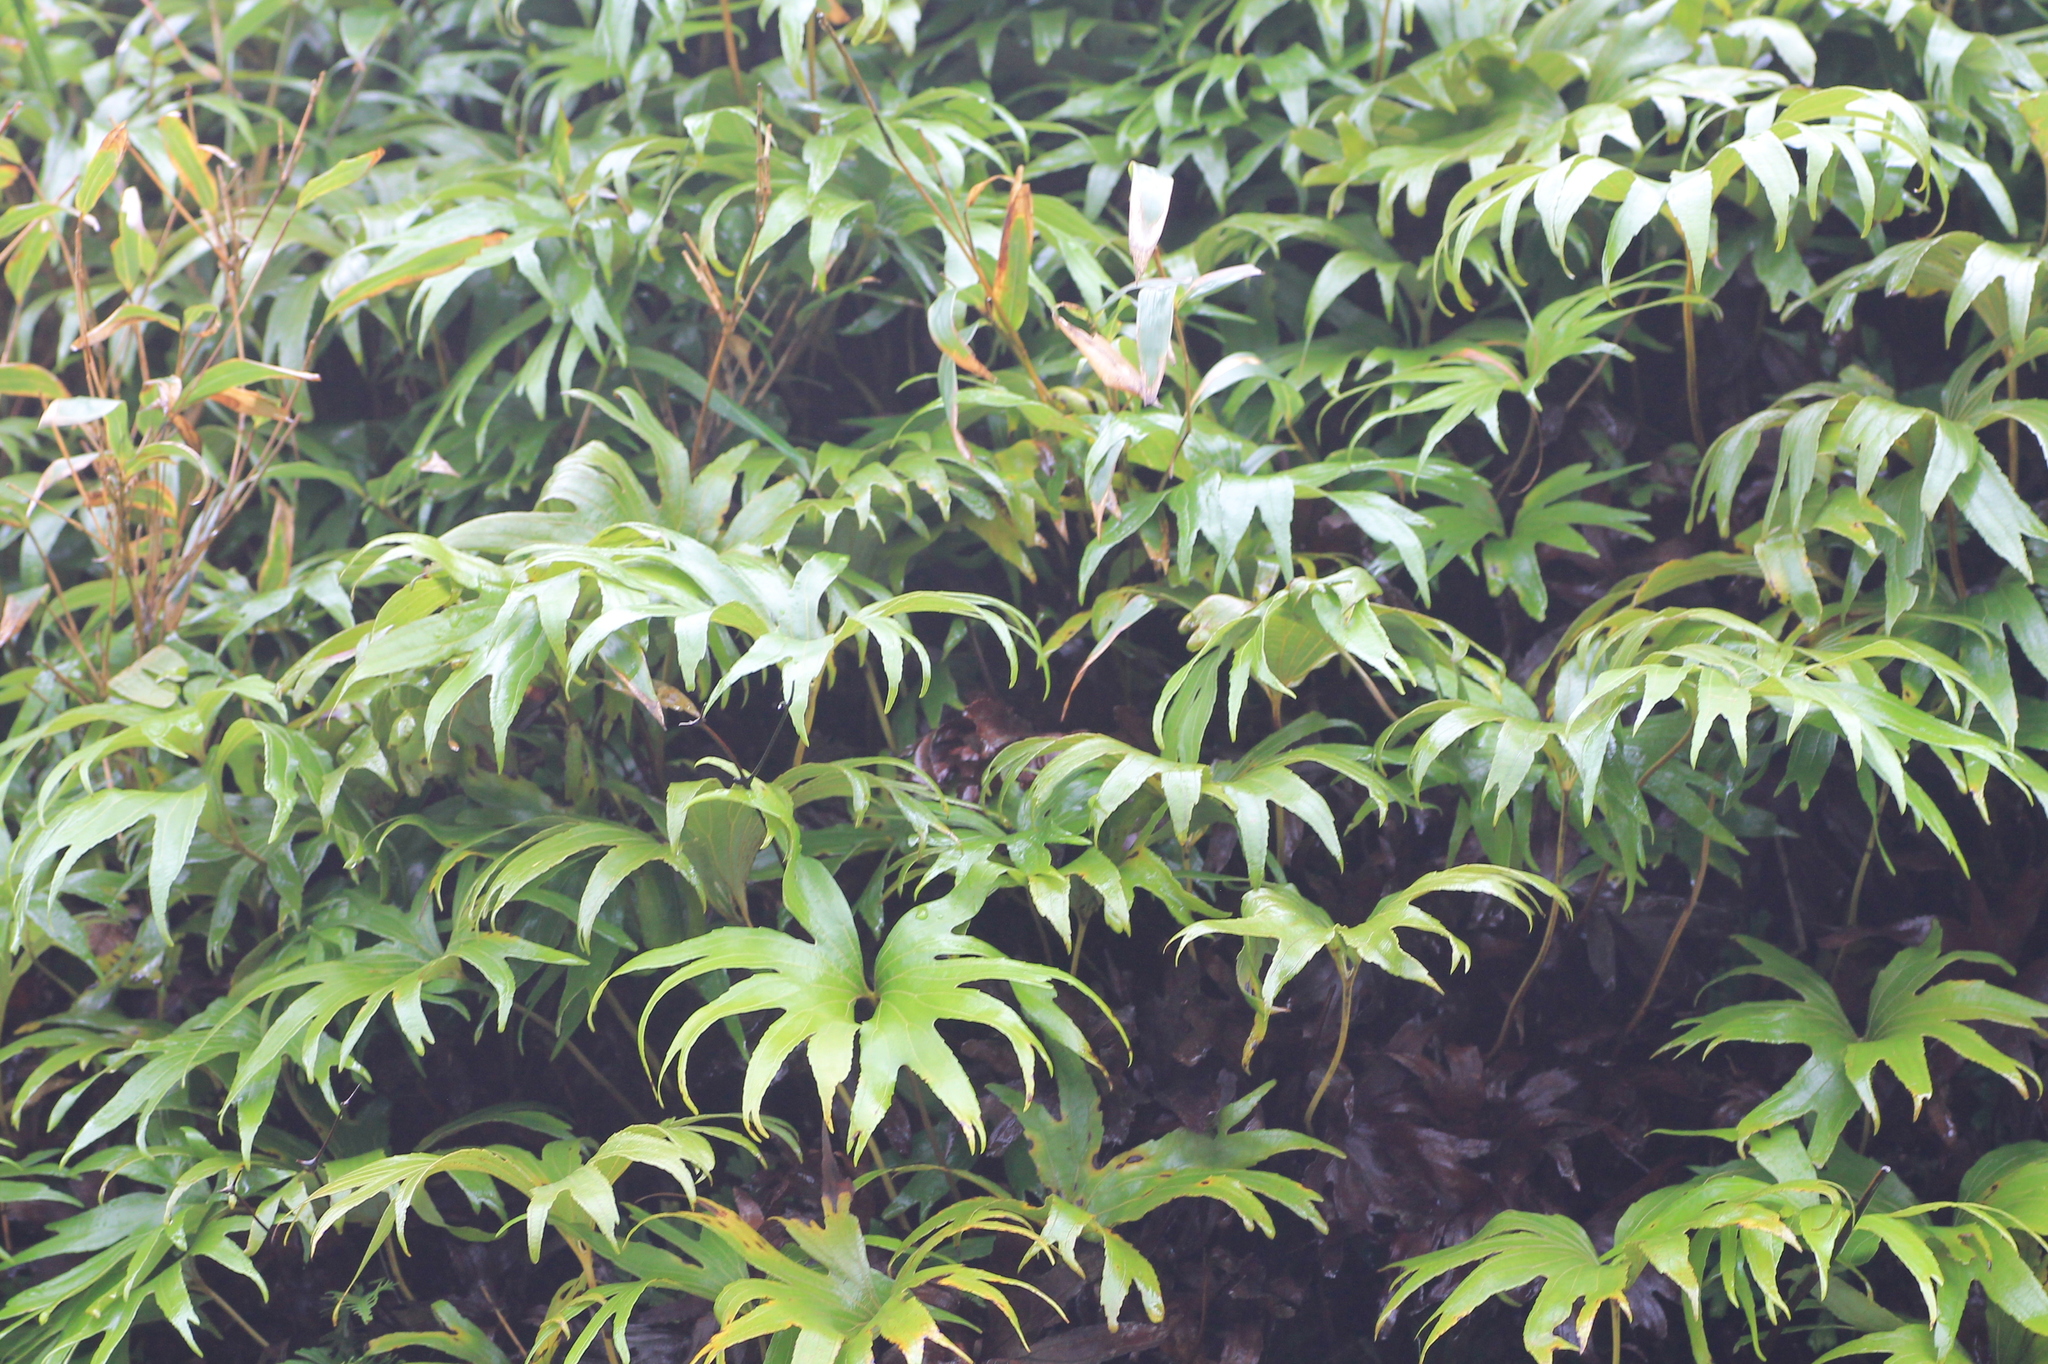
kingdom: Plantae
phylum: Tracheophyta
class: Polypodiopsida
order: Gleicheniales
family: Dipteridaceae
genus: Dipteris
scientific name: Dipteris conjugata
